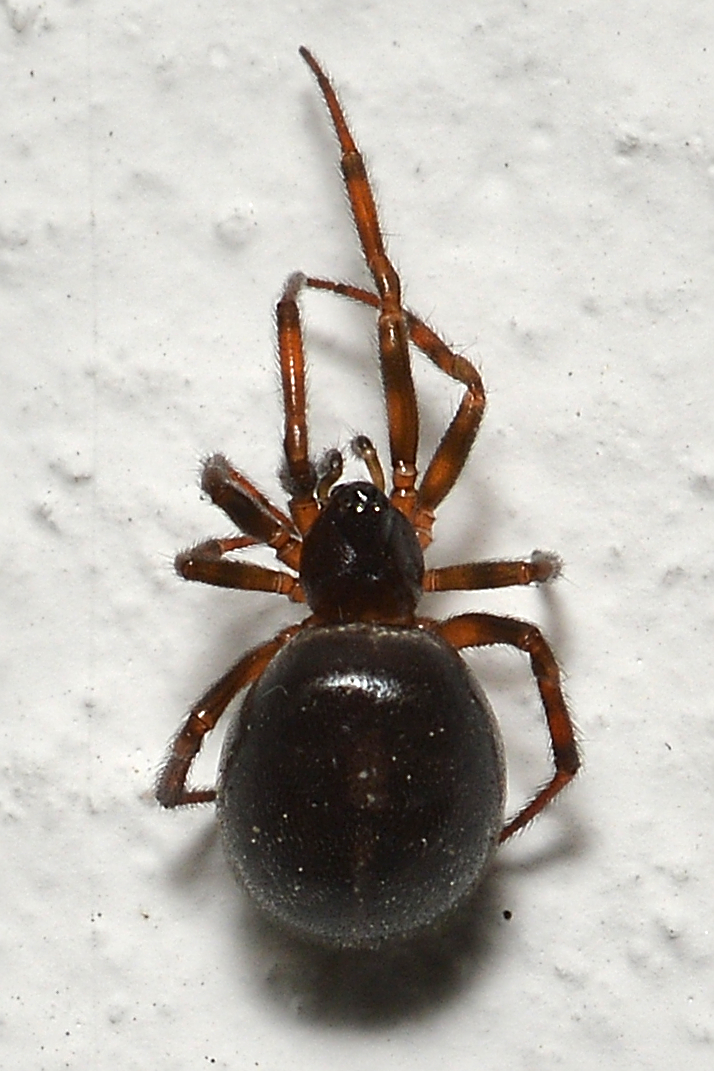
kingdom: Animalia
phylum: Arthropoda
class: Arachnida
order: Araneae
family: Theridiidae
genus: Steatoda
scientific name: Steatoda bipunctata
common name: False widow
